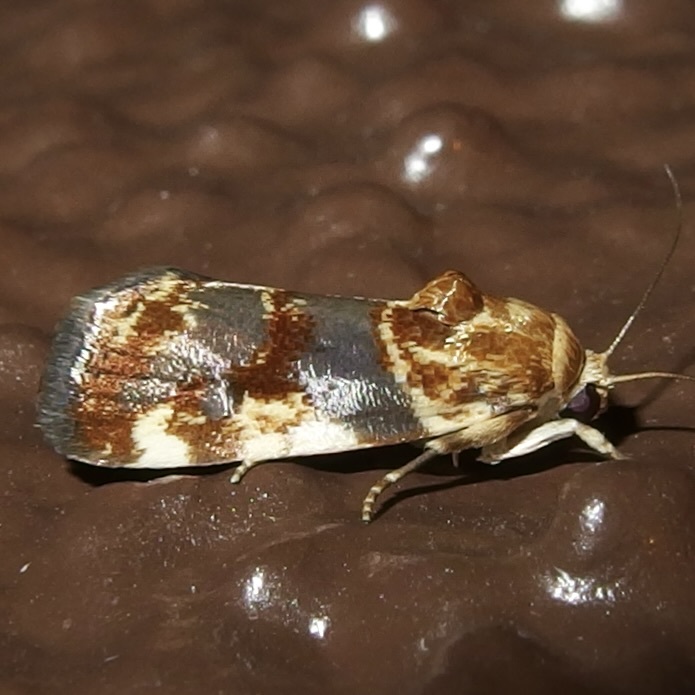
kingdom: Animalia
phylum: Arthropoda
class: Insecta
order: Lepidoptera
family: Noctuidae
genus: Acontia
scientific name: Acontia obatra
